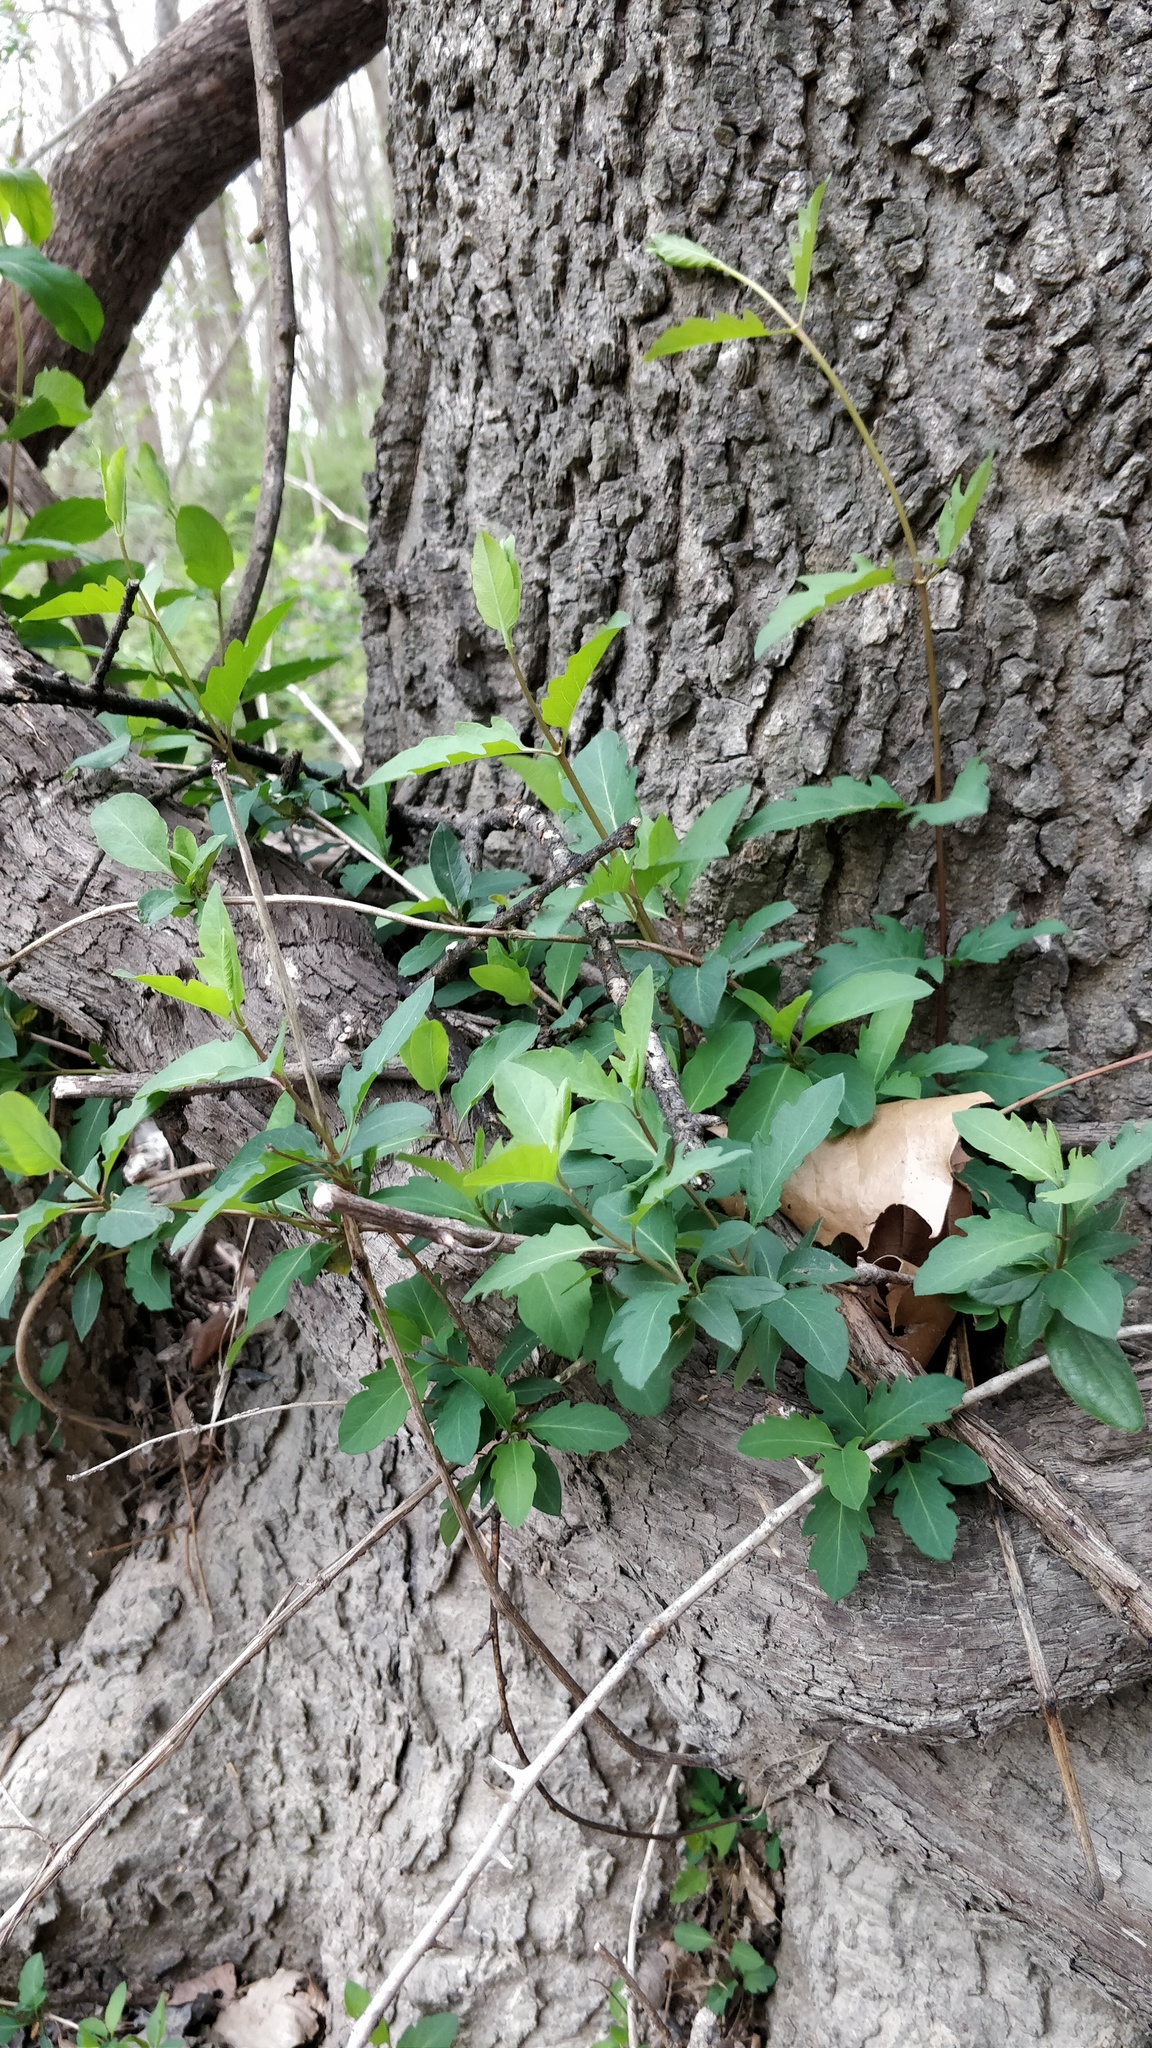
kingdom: Plantae
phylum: Tracheophyta
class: Magnoliopsida
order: Dipsacales
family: Caprifoliaceae
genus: Lonicera
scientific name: Lonicera japonica
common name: Japanese honeysuckle
